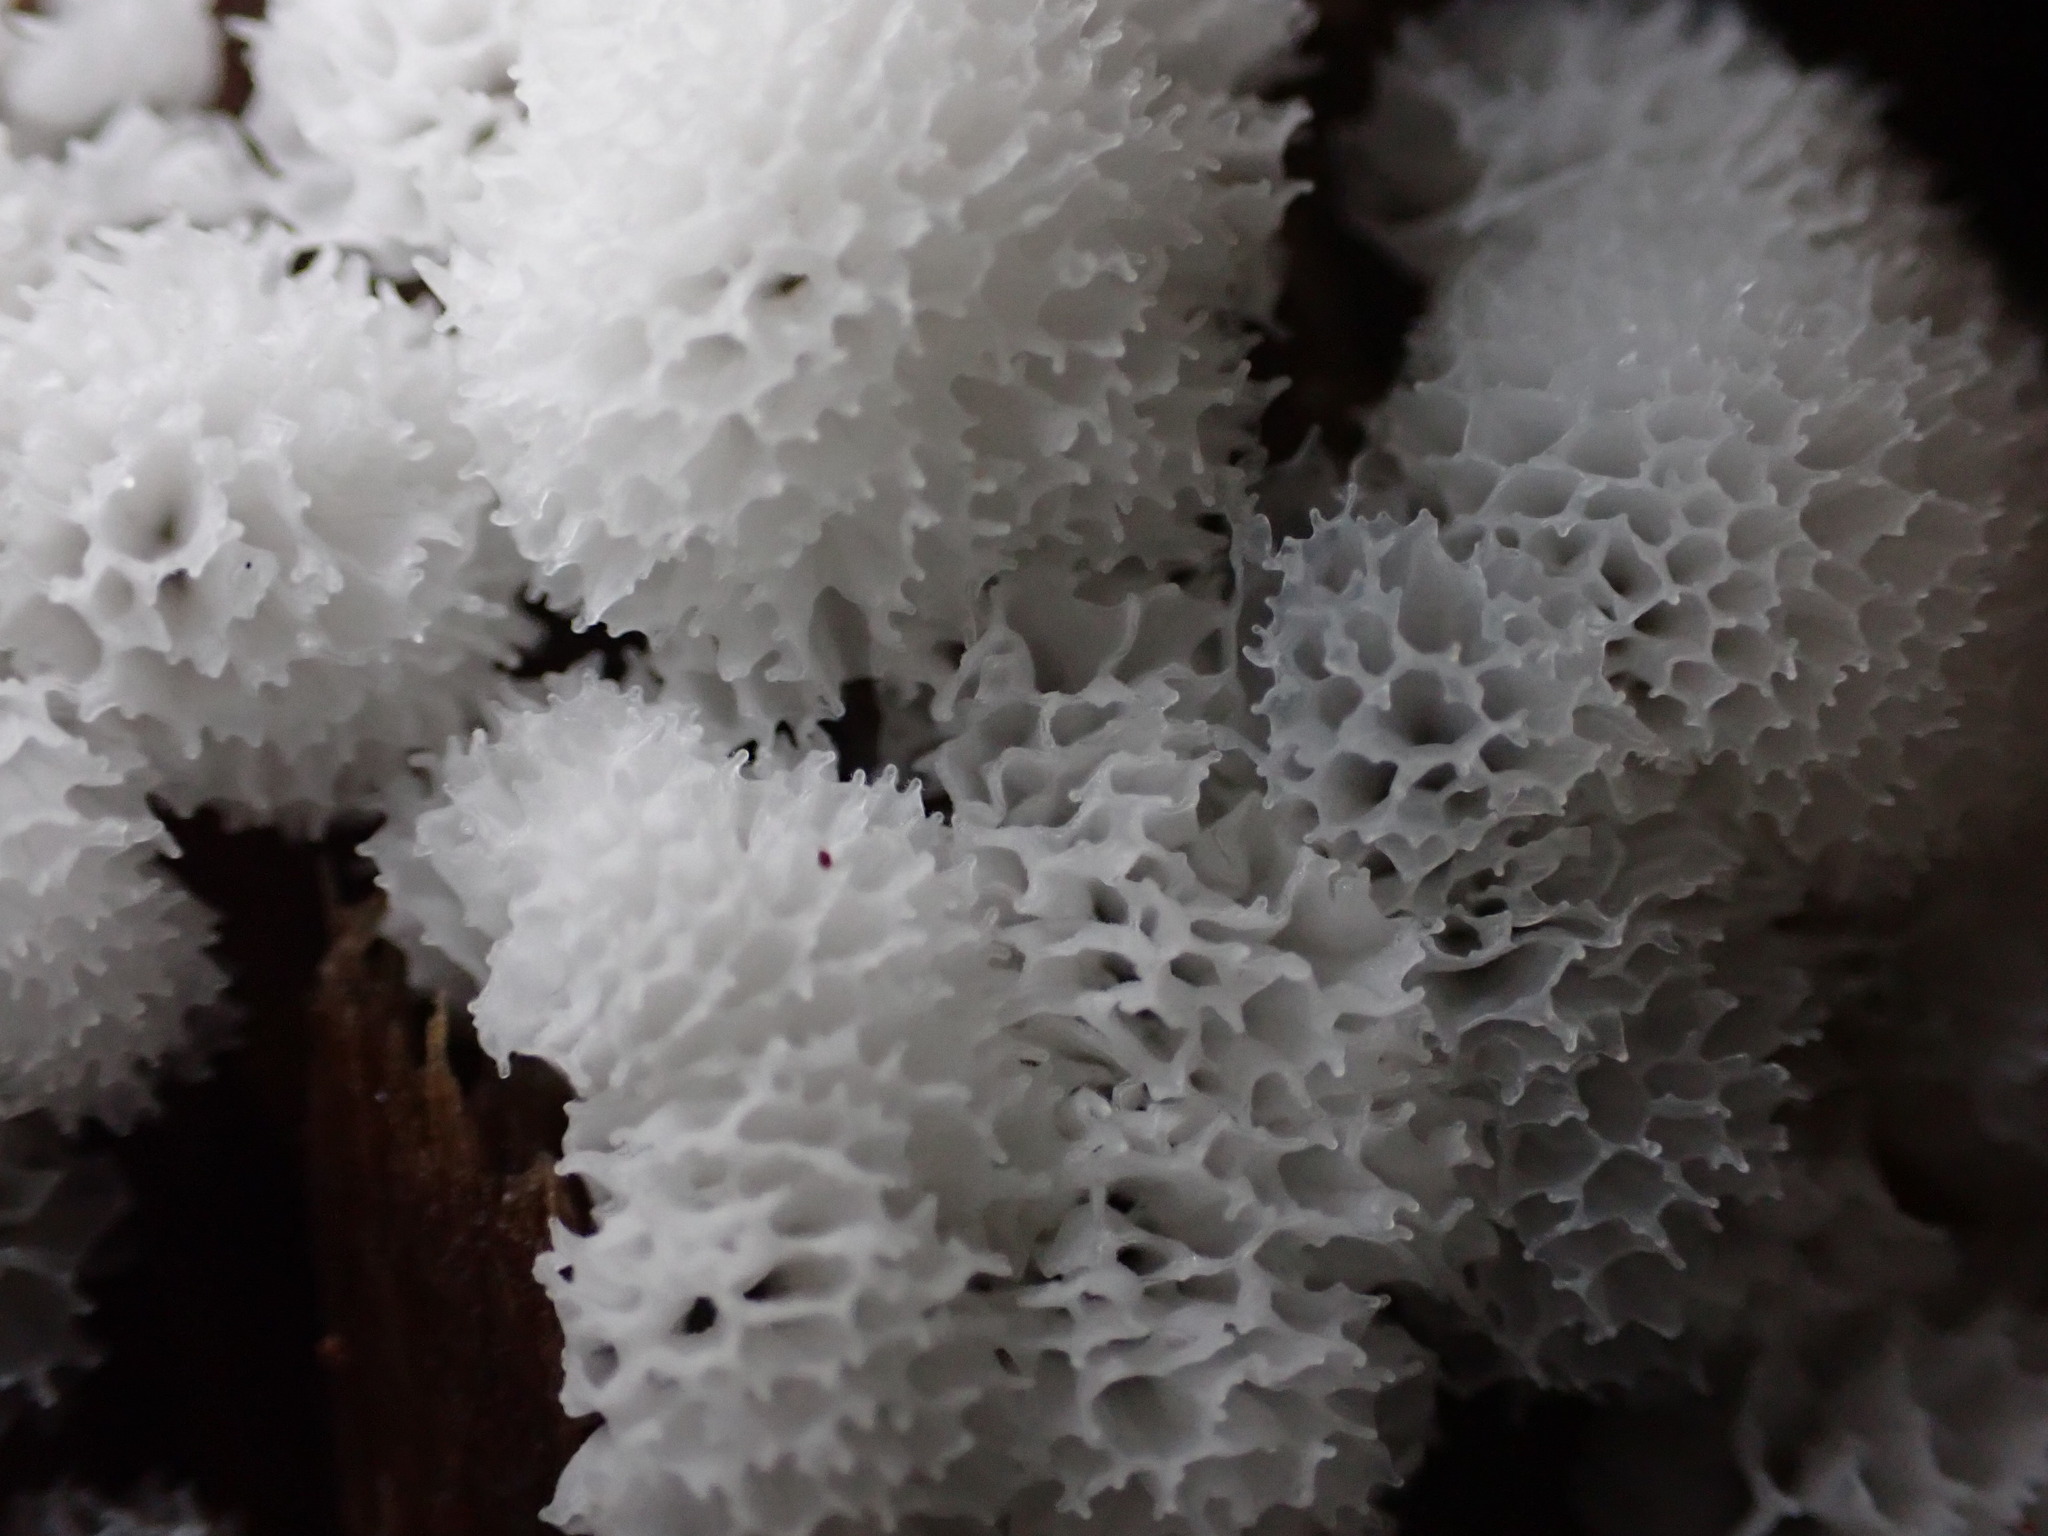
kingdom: Protozoa
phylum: Mycetozoa
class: Protosteliomycetes
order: Ceratiomyxales
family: Ceratiomyxaceae
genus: Ceratiomyxa
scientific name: Ceratiomyxa fruticulosa
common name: Honeycomb coral slime mold
